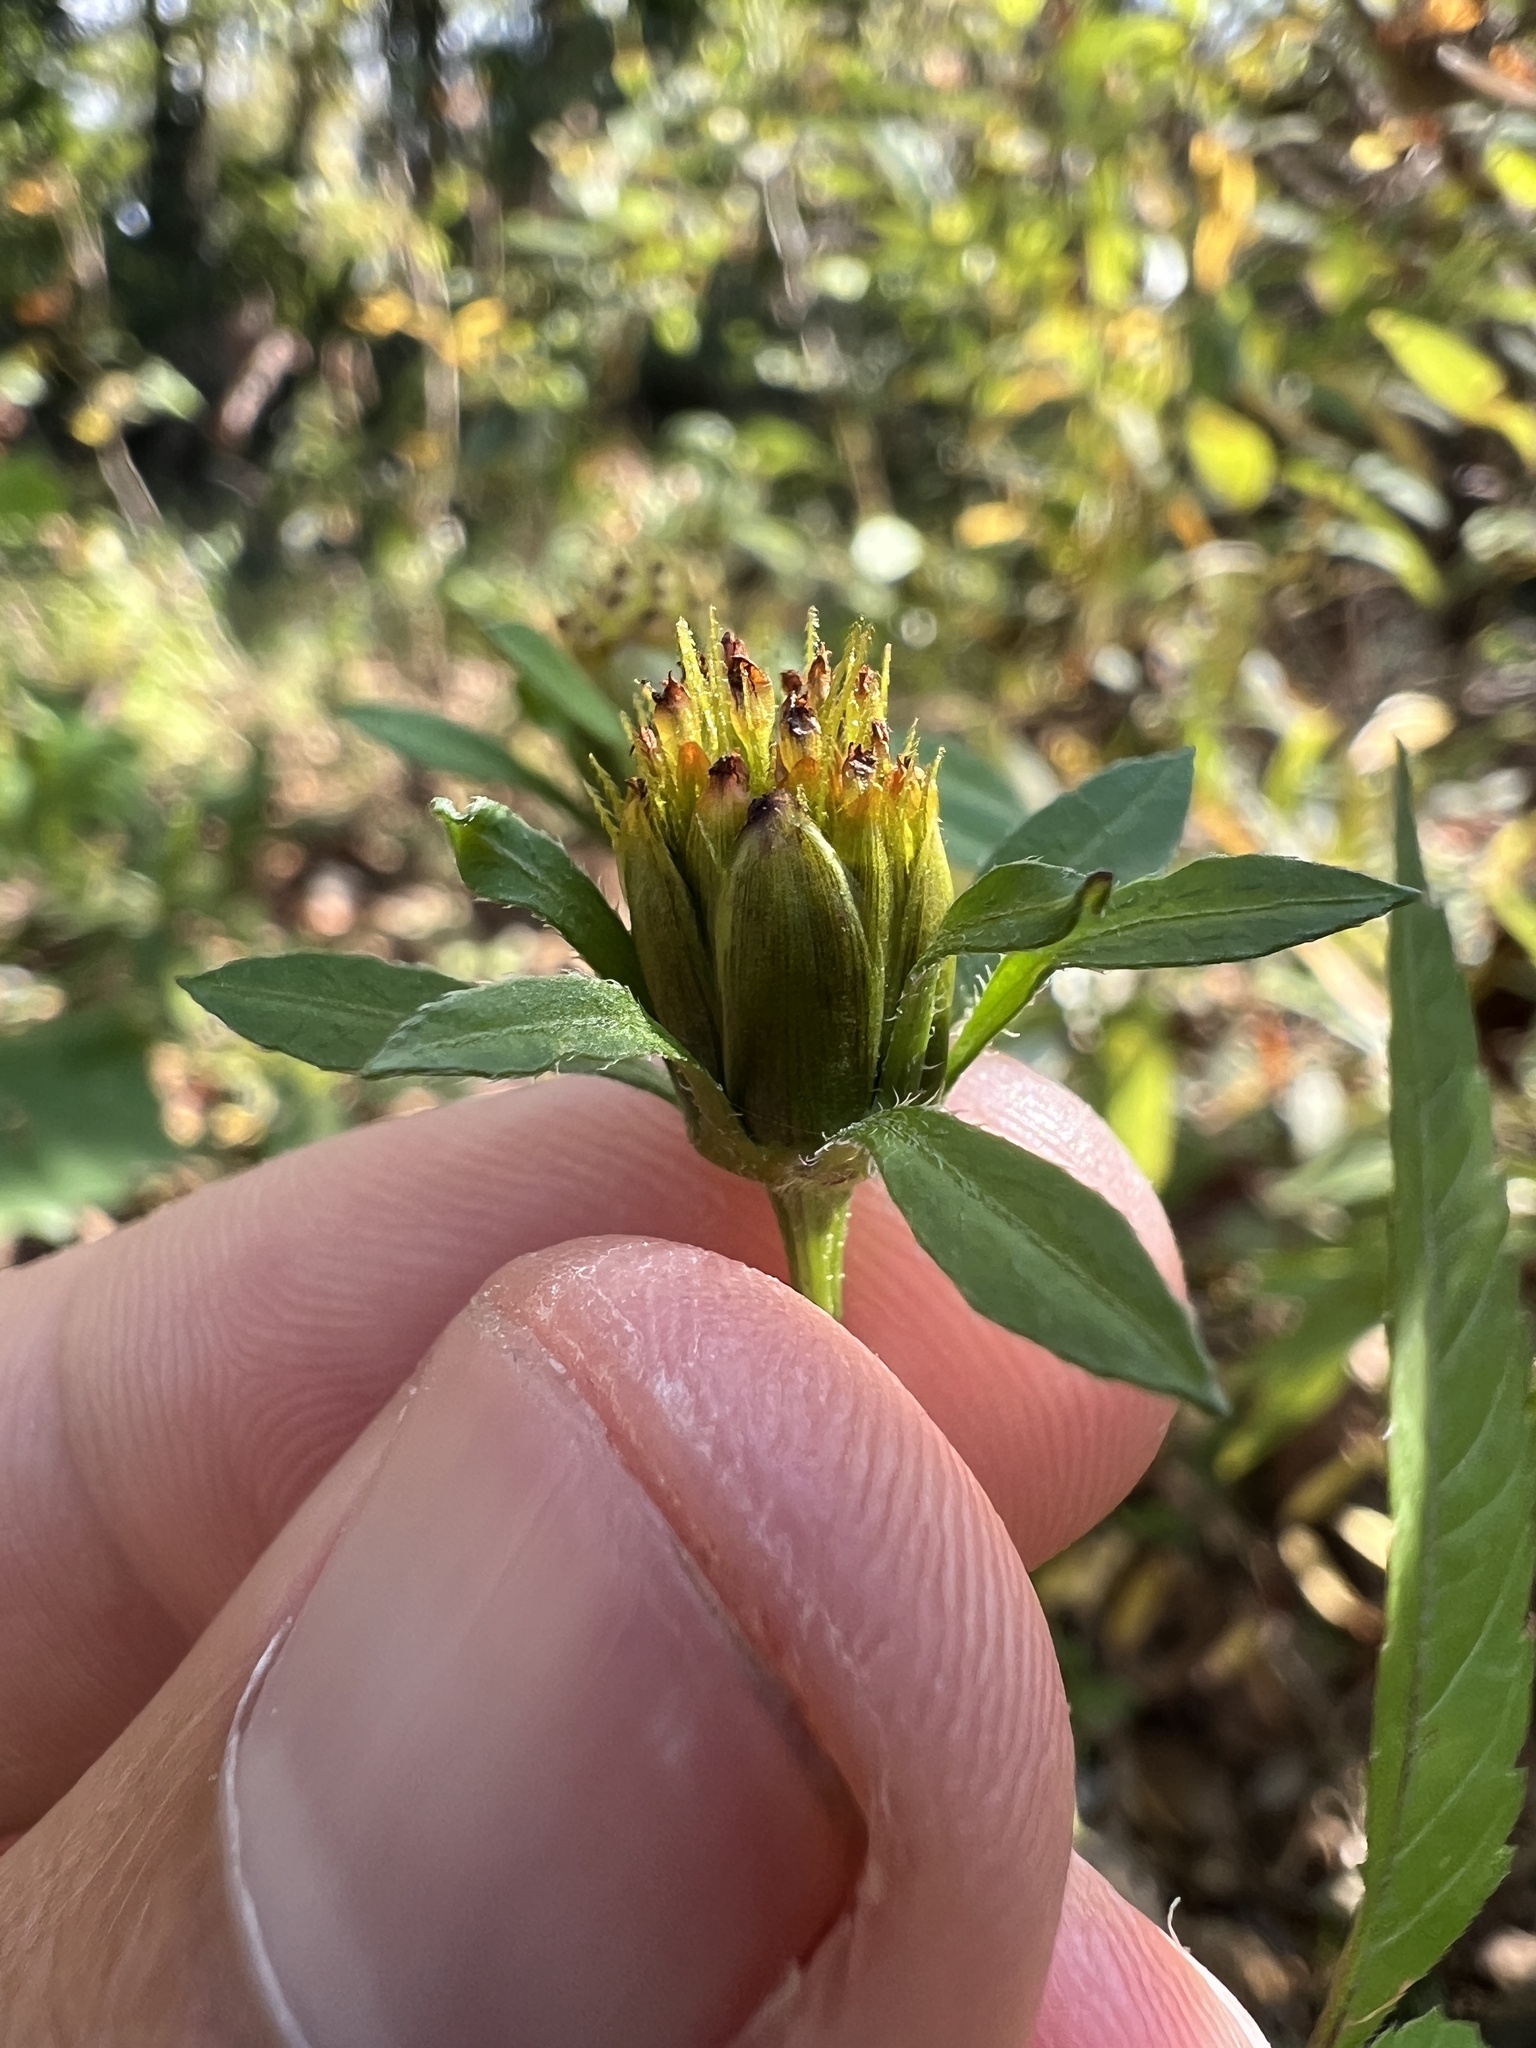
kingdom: Plantae
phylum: Tracheophyta
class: Magnoliopsida
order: Asterales
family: Asteraceae
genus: Bidens
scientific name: Bidens frondosa
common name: Beggarticks
